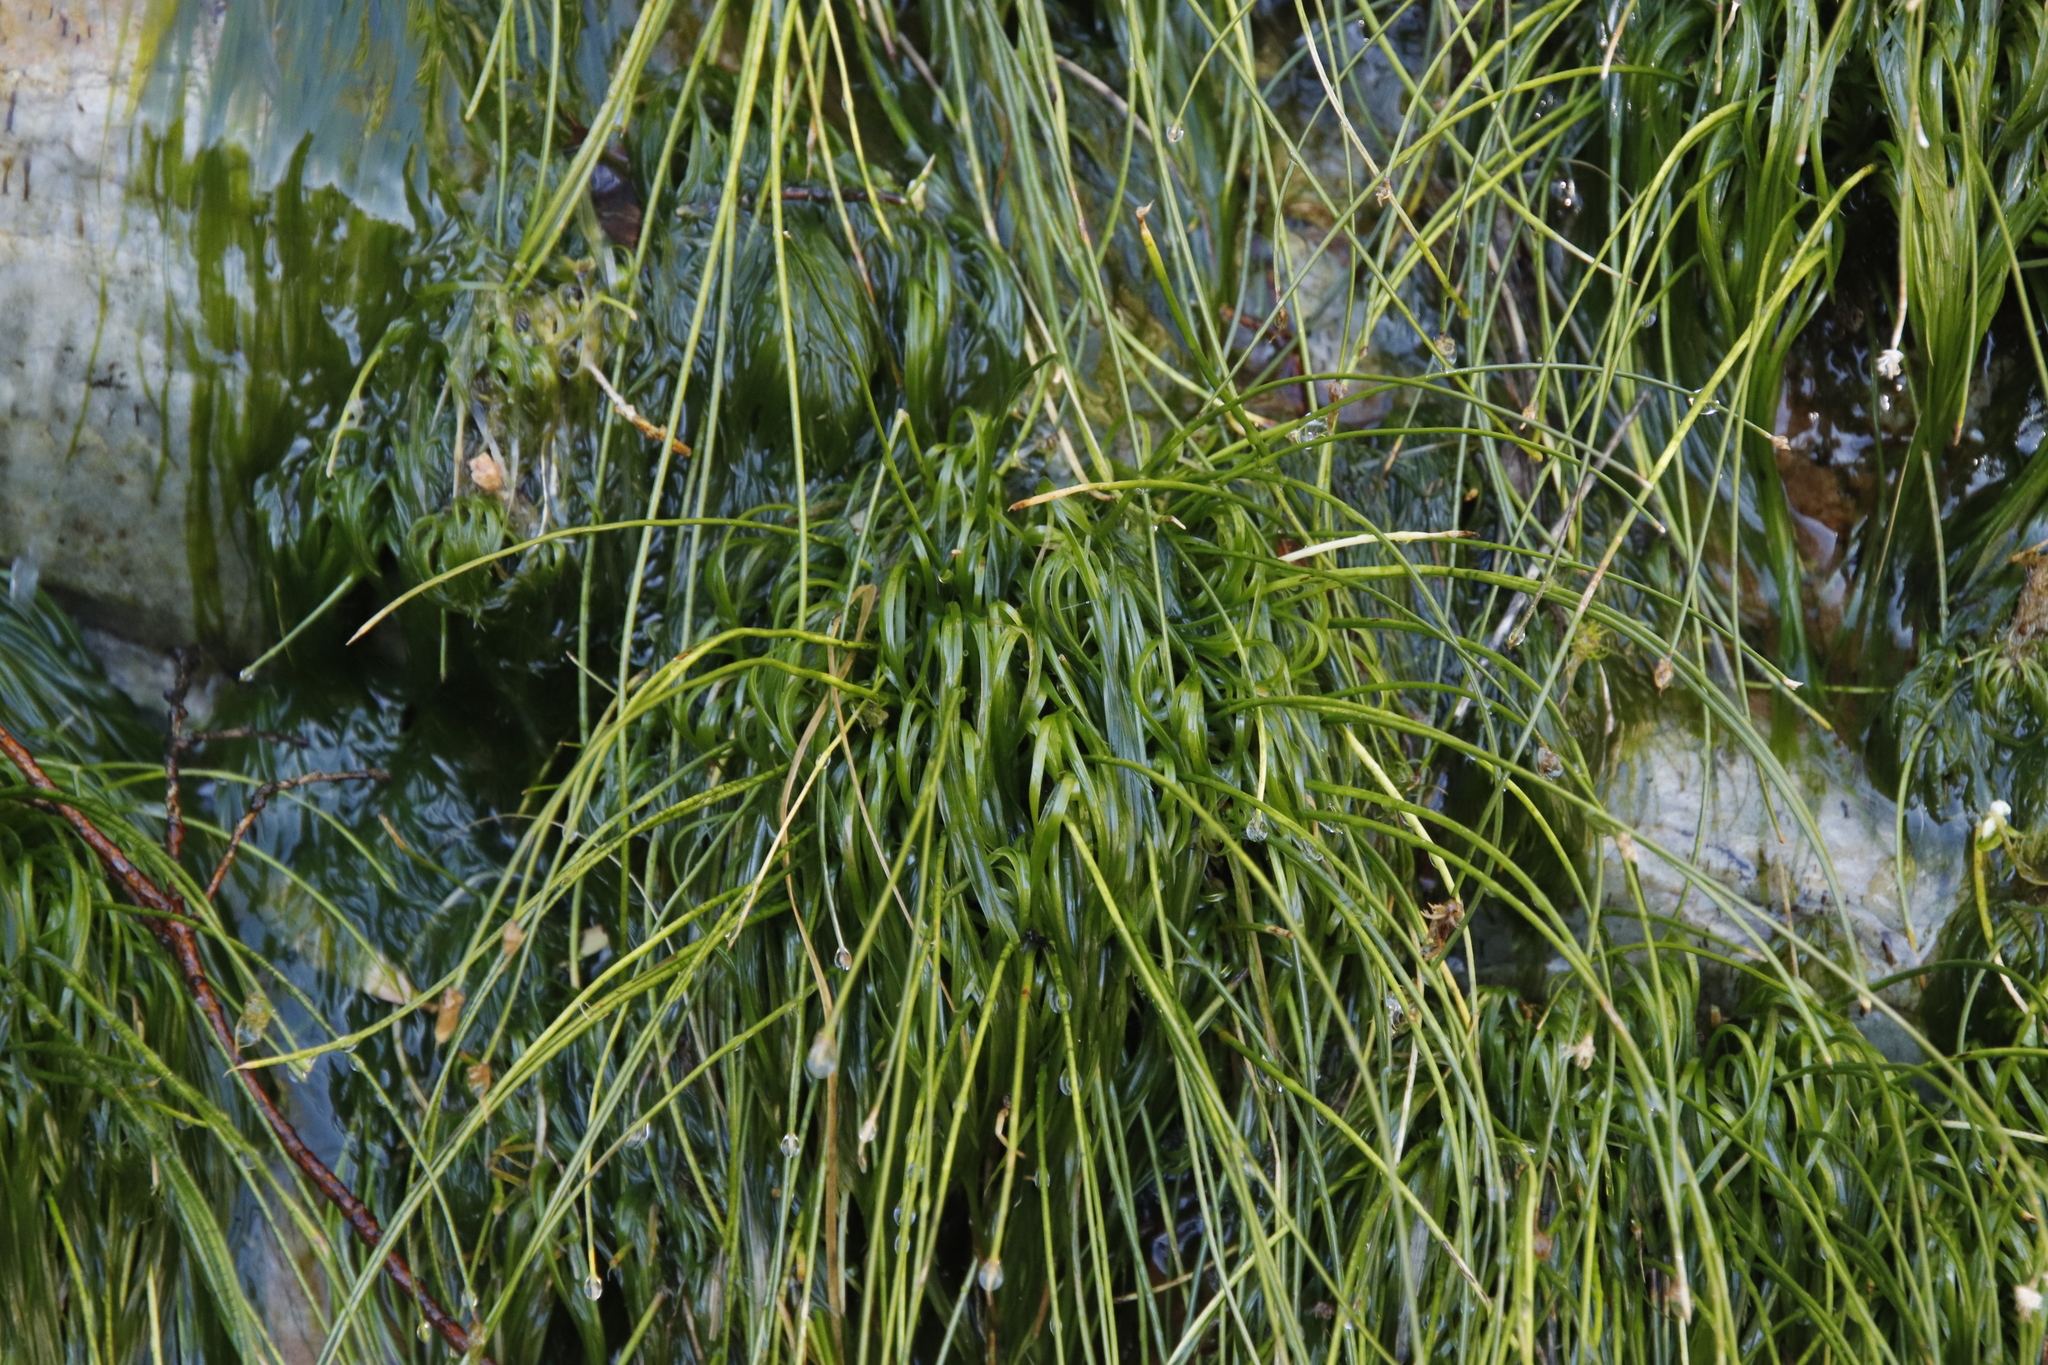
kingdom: Plantae
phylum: Tracheophyta
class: Liliopsida
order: Poales
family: Cyperaceae
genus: Isolepis
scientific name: Isolepis digitata
